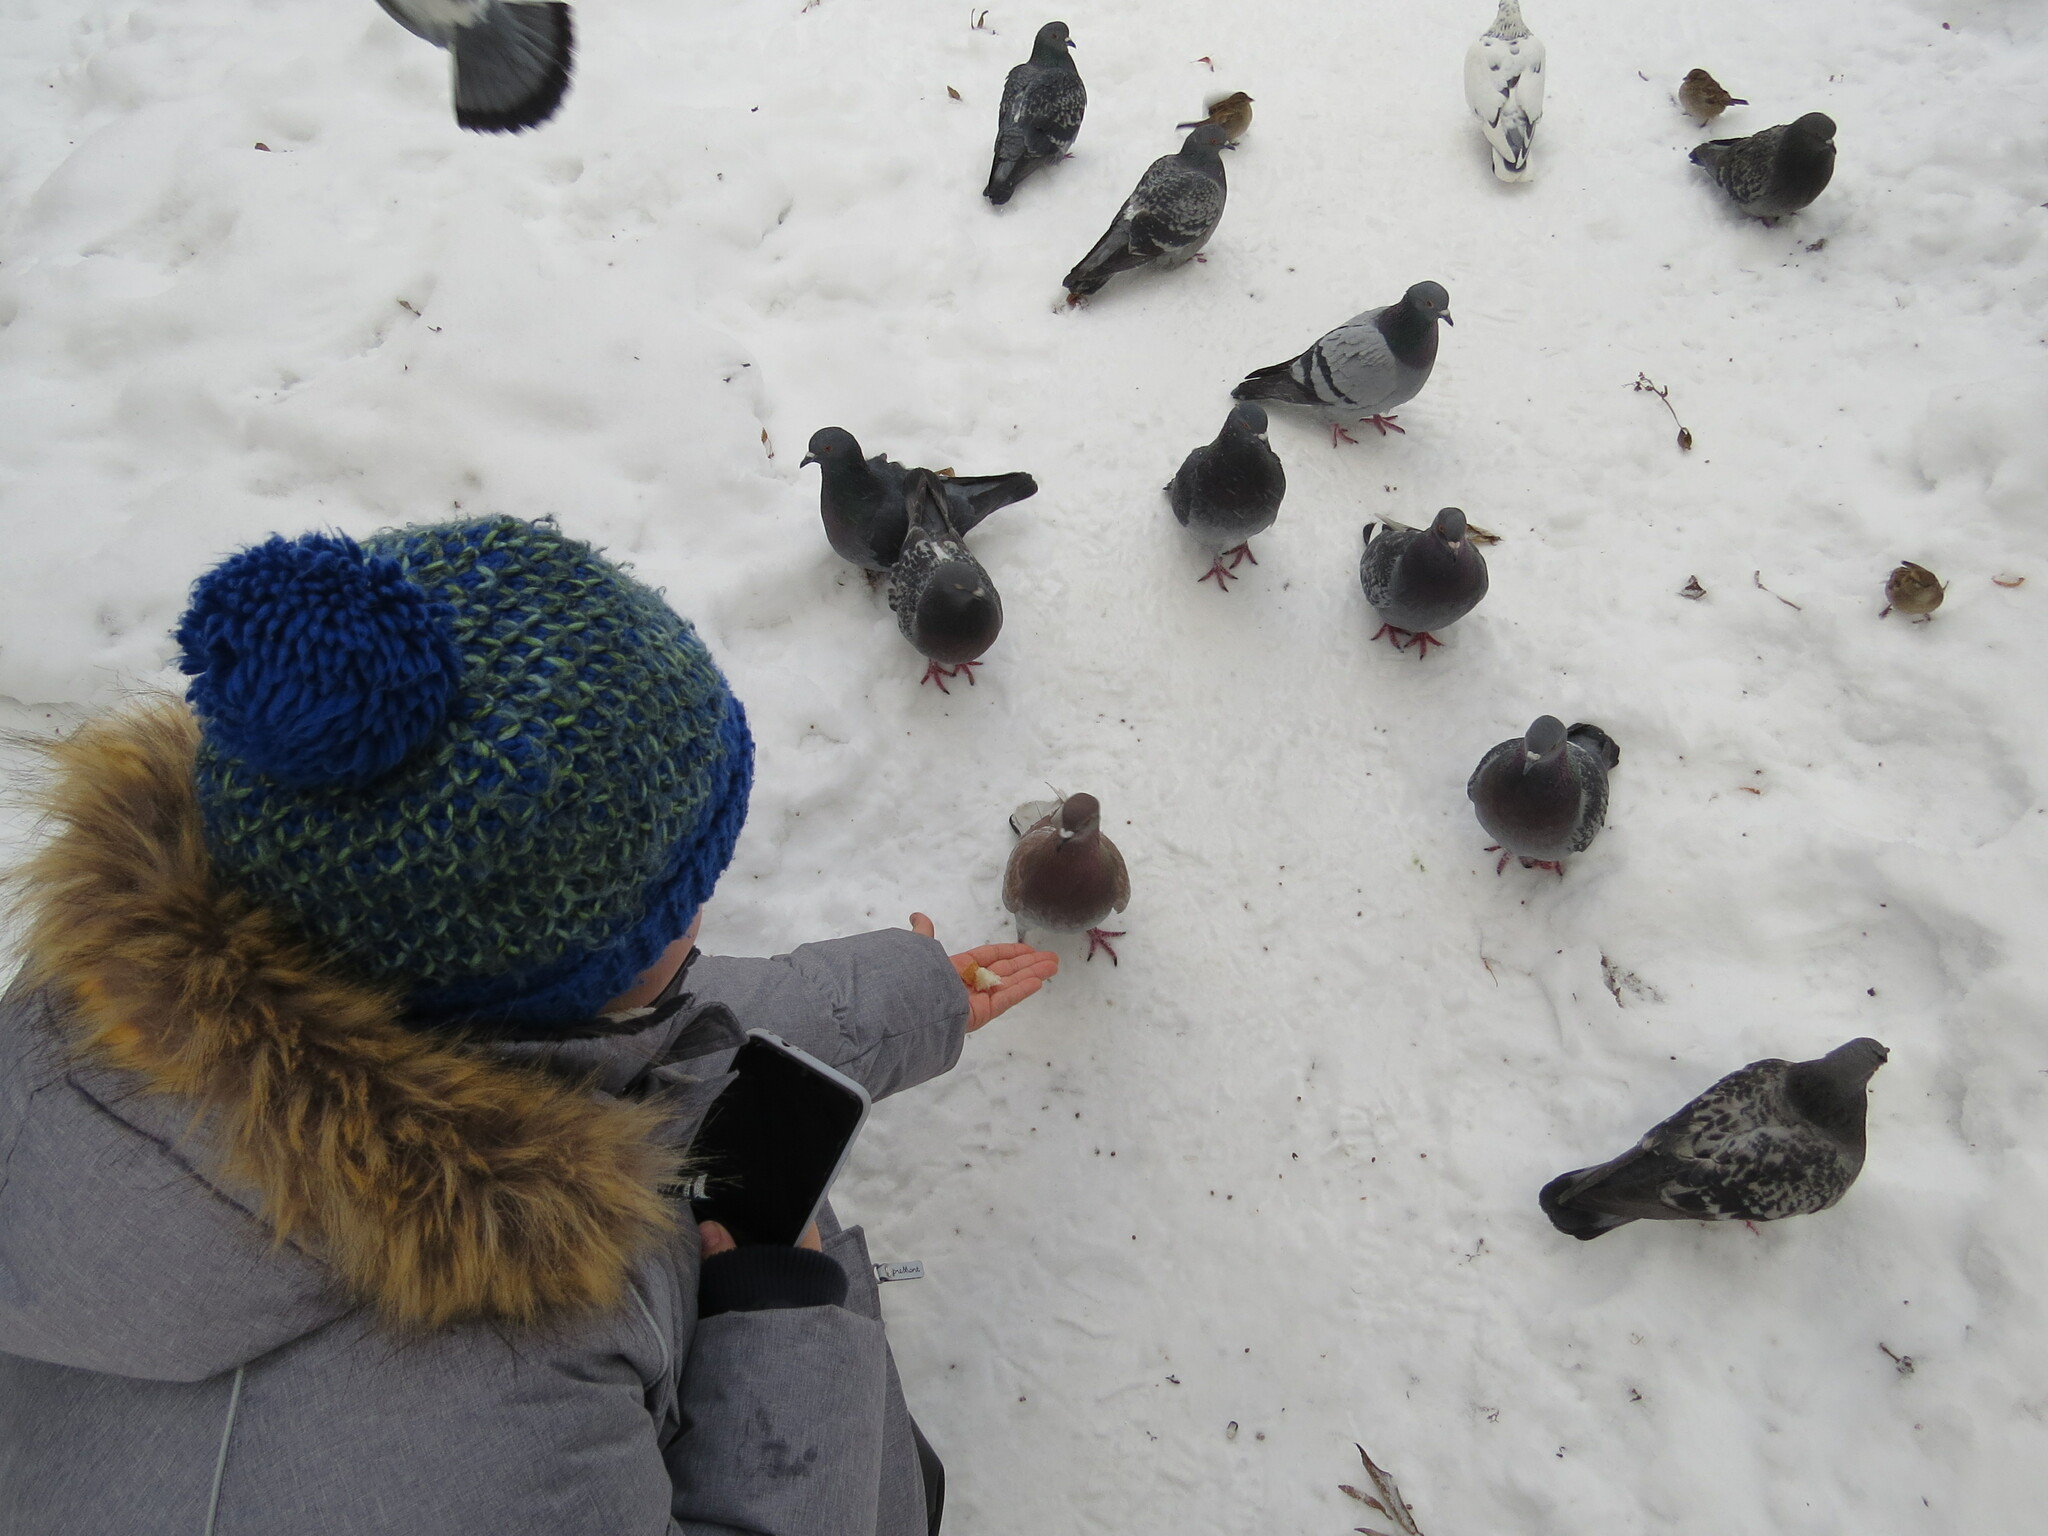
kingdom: Animalia
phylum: Chordata
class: Aves
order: Columbiformes
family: Columbidae
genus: Columba
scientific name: Columba livia
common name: Rock pigeon
